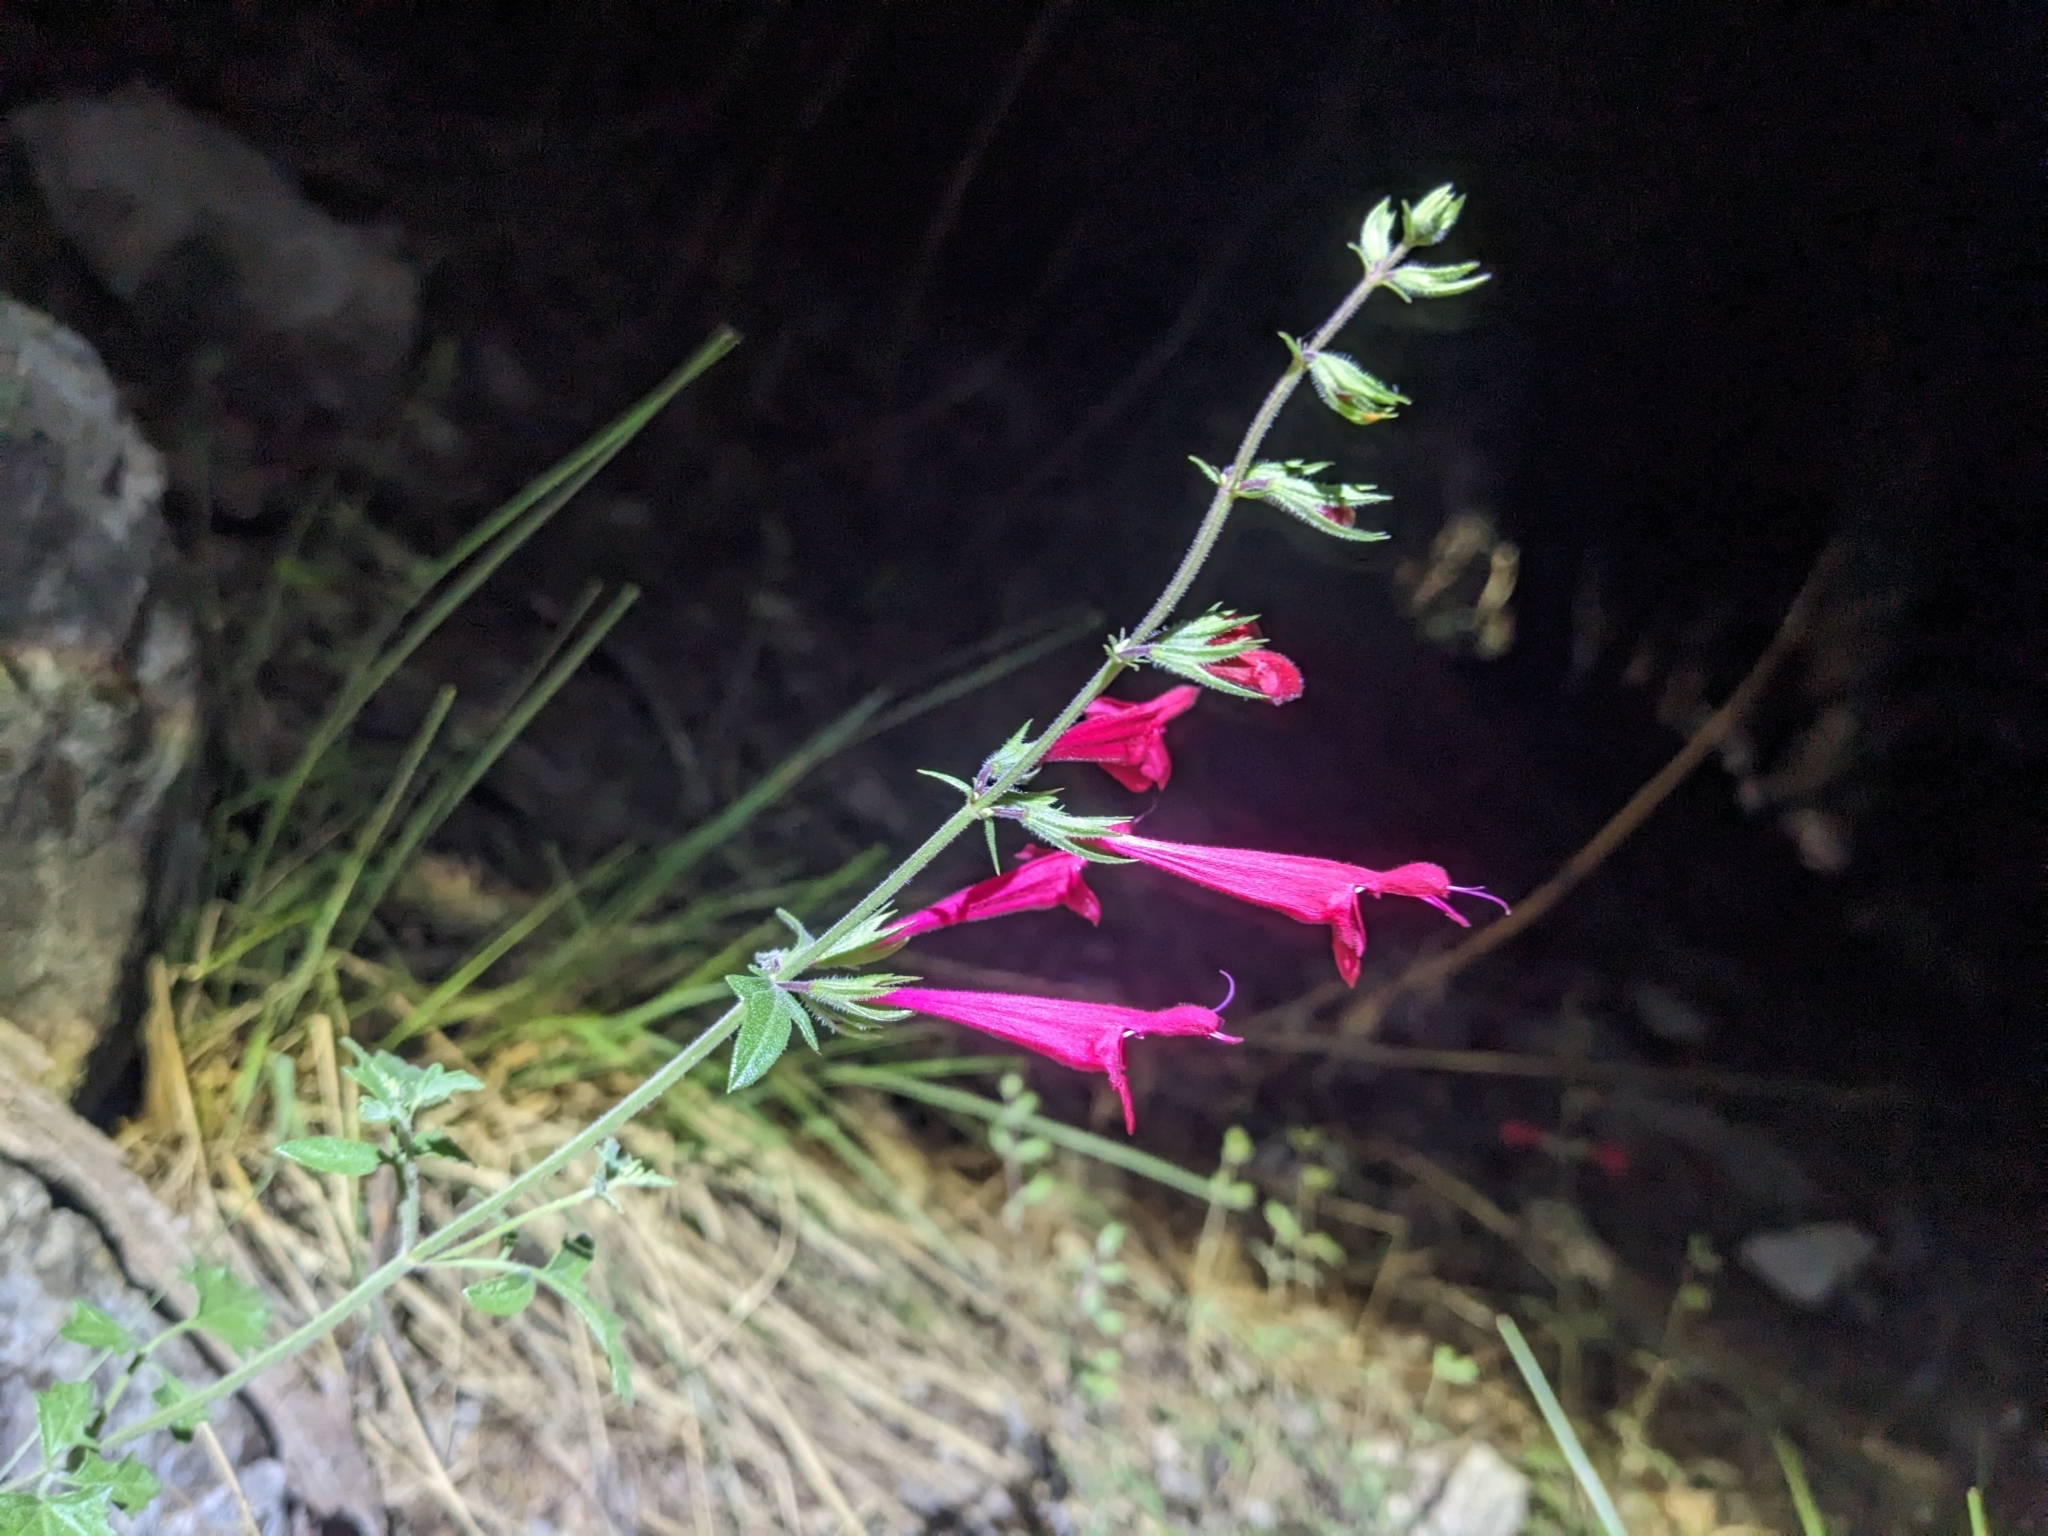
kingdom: Plantae
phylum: Tracheophyta
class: Magnoliopsida
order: Lamiales
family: Lamiaceae
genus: Salvia
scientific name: Salvia henryi
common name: Henry's sage
